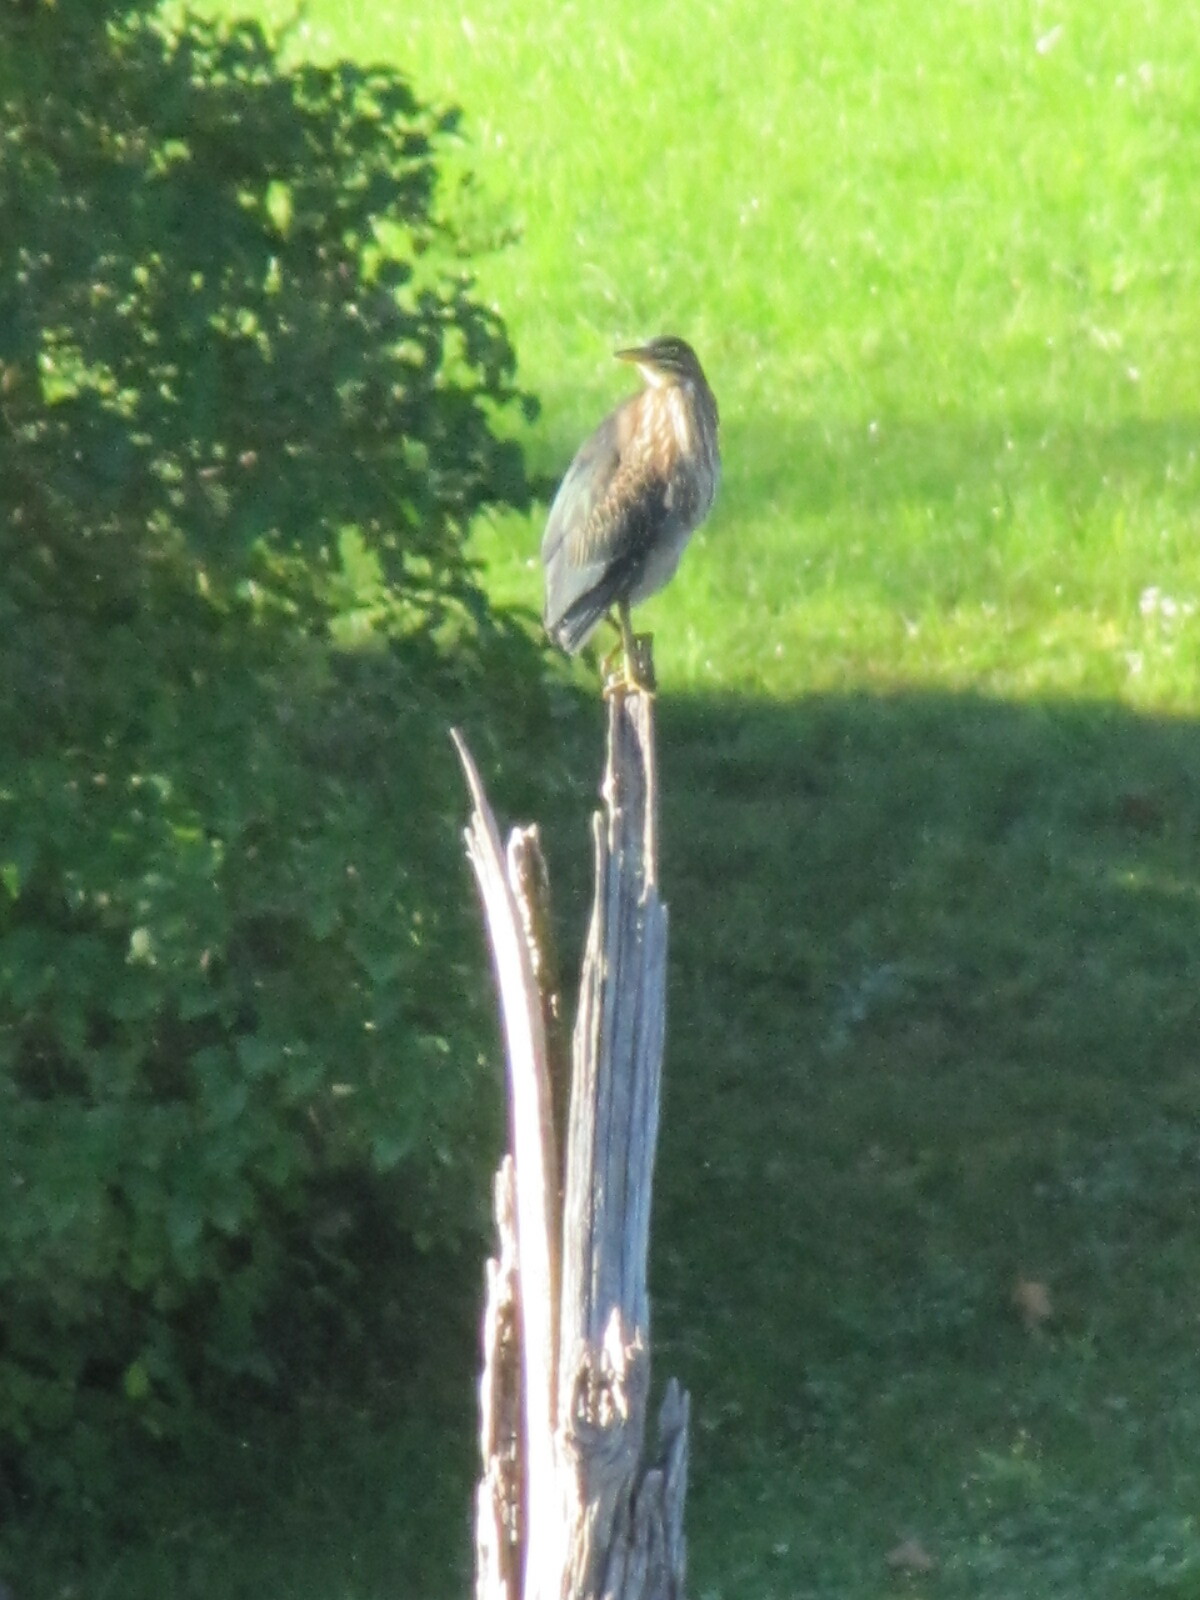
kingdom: Animalia
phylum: Chordata
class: Aves
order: Pelecaniformes
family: Ardeidae
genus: Butorides
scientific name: Butorides virescens
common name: Green heron
